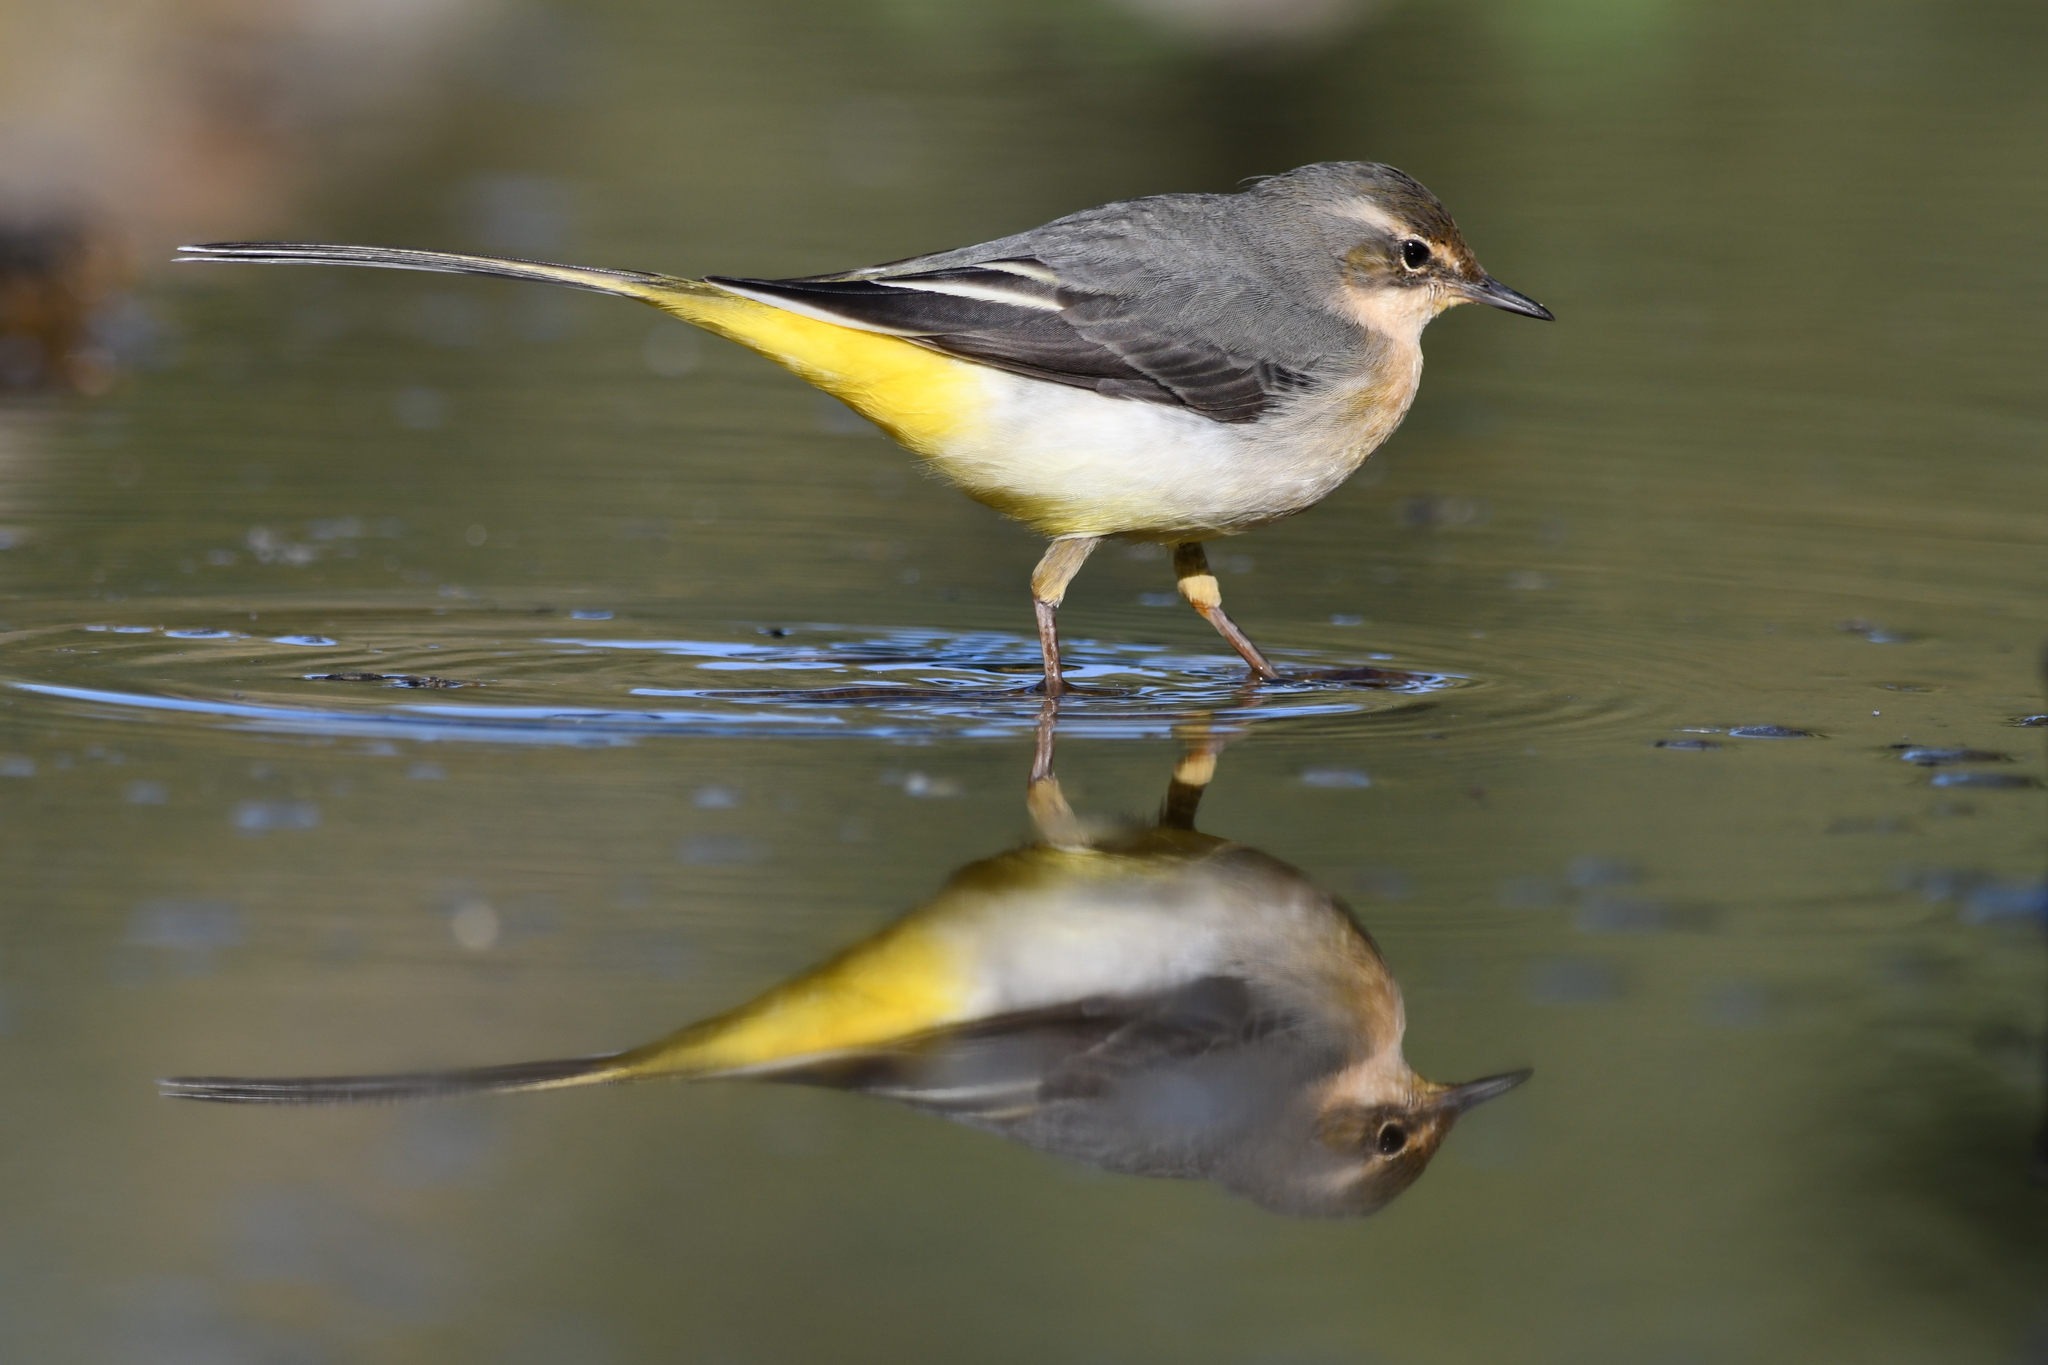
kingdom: Animalia
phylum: Chordata
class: Aves
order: Passeriformes
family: Motacillidae
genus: Motacilla
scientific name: Motacilla cinerea
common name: Grey wagtail
